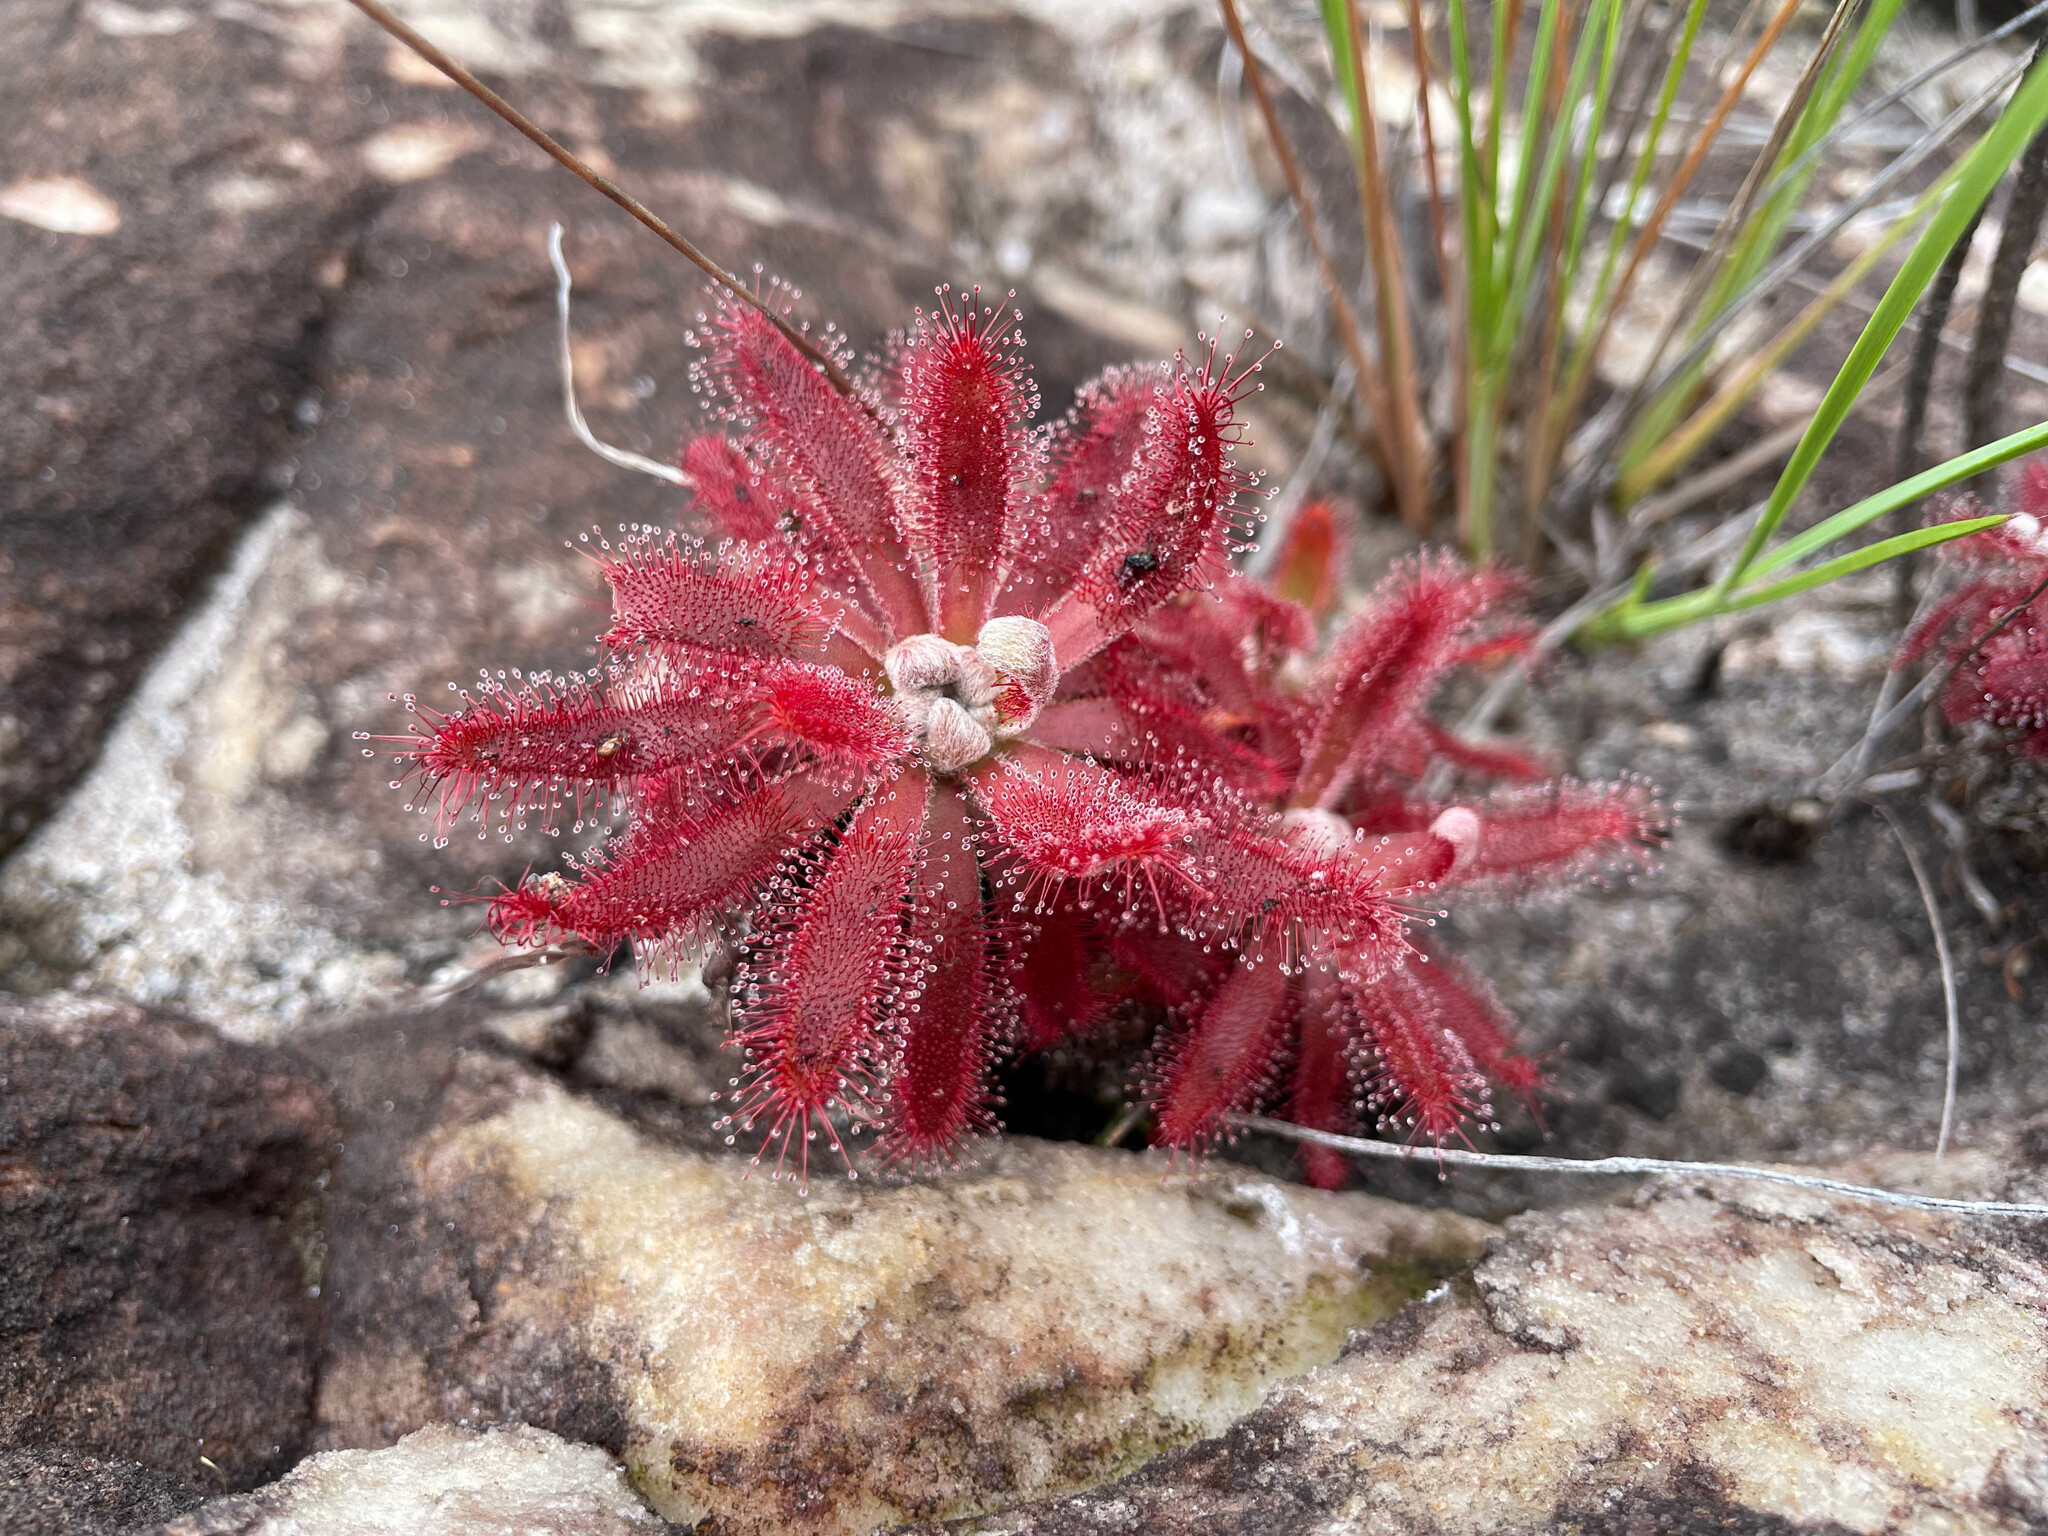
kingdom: Plantae
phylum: Tracheophyta
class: Magnoliopsida
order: Caryophyllales
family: Droseraceae
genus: Drosera
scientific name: Drosera graomogolensis
